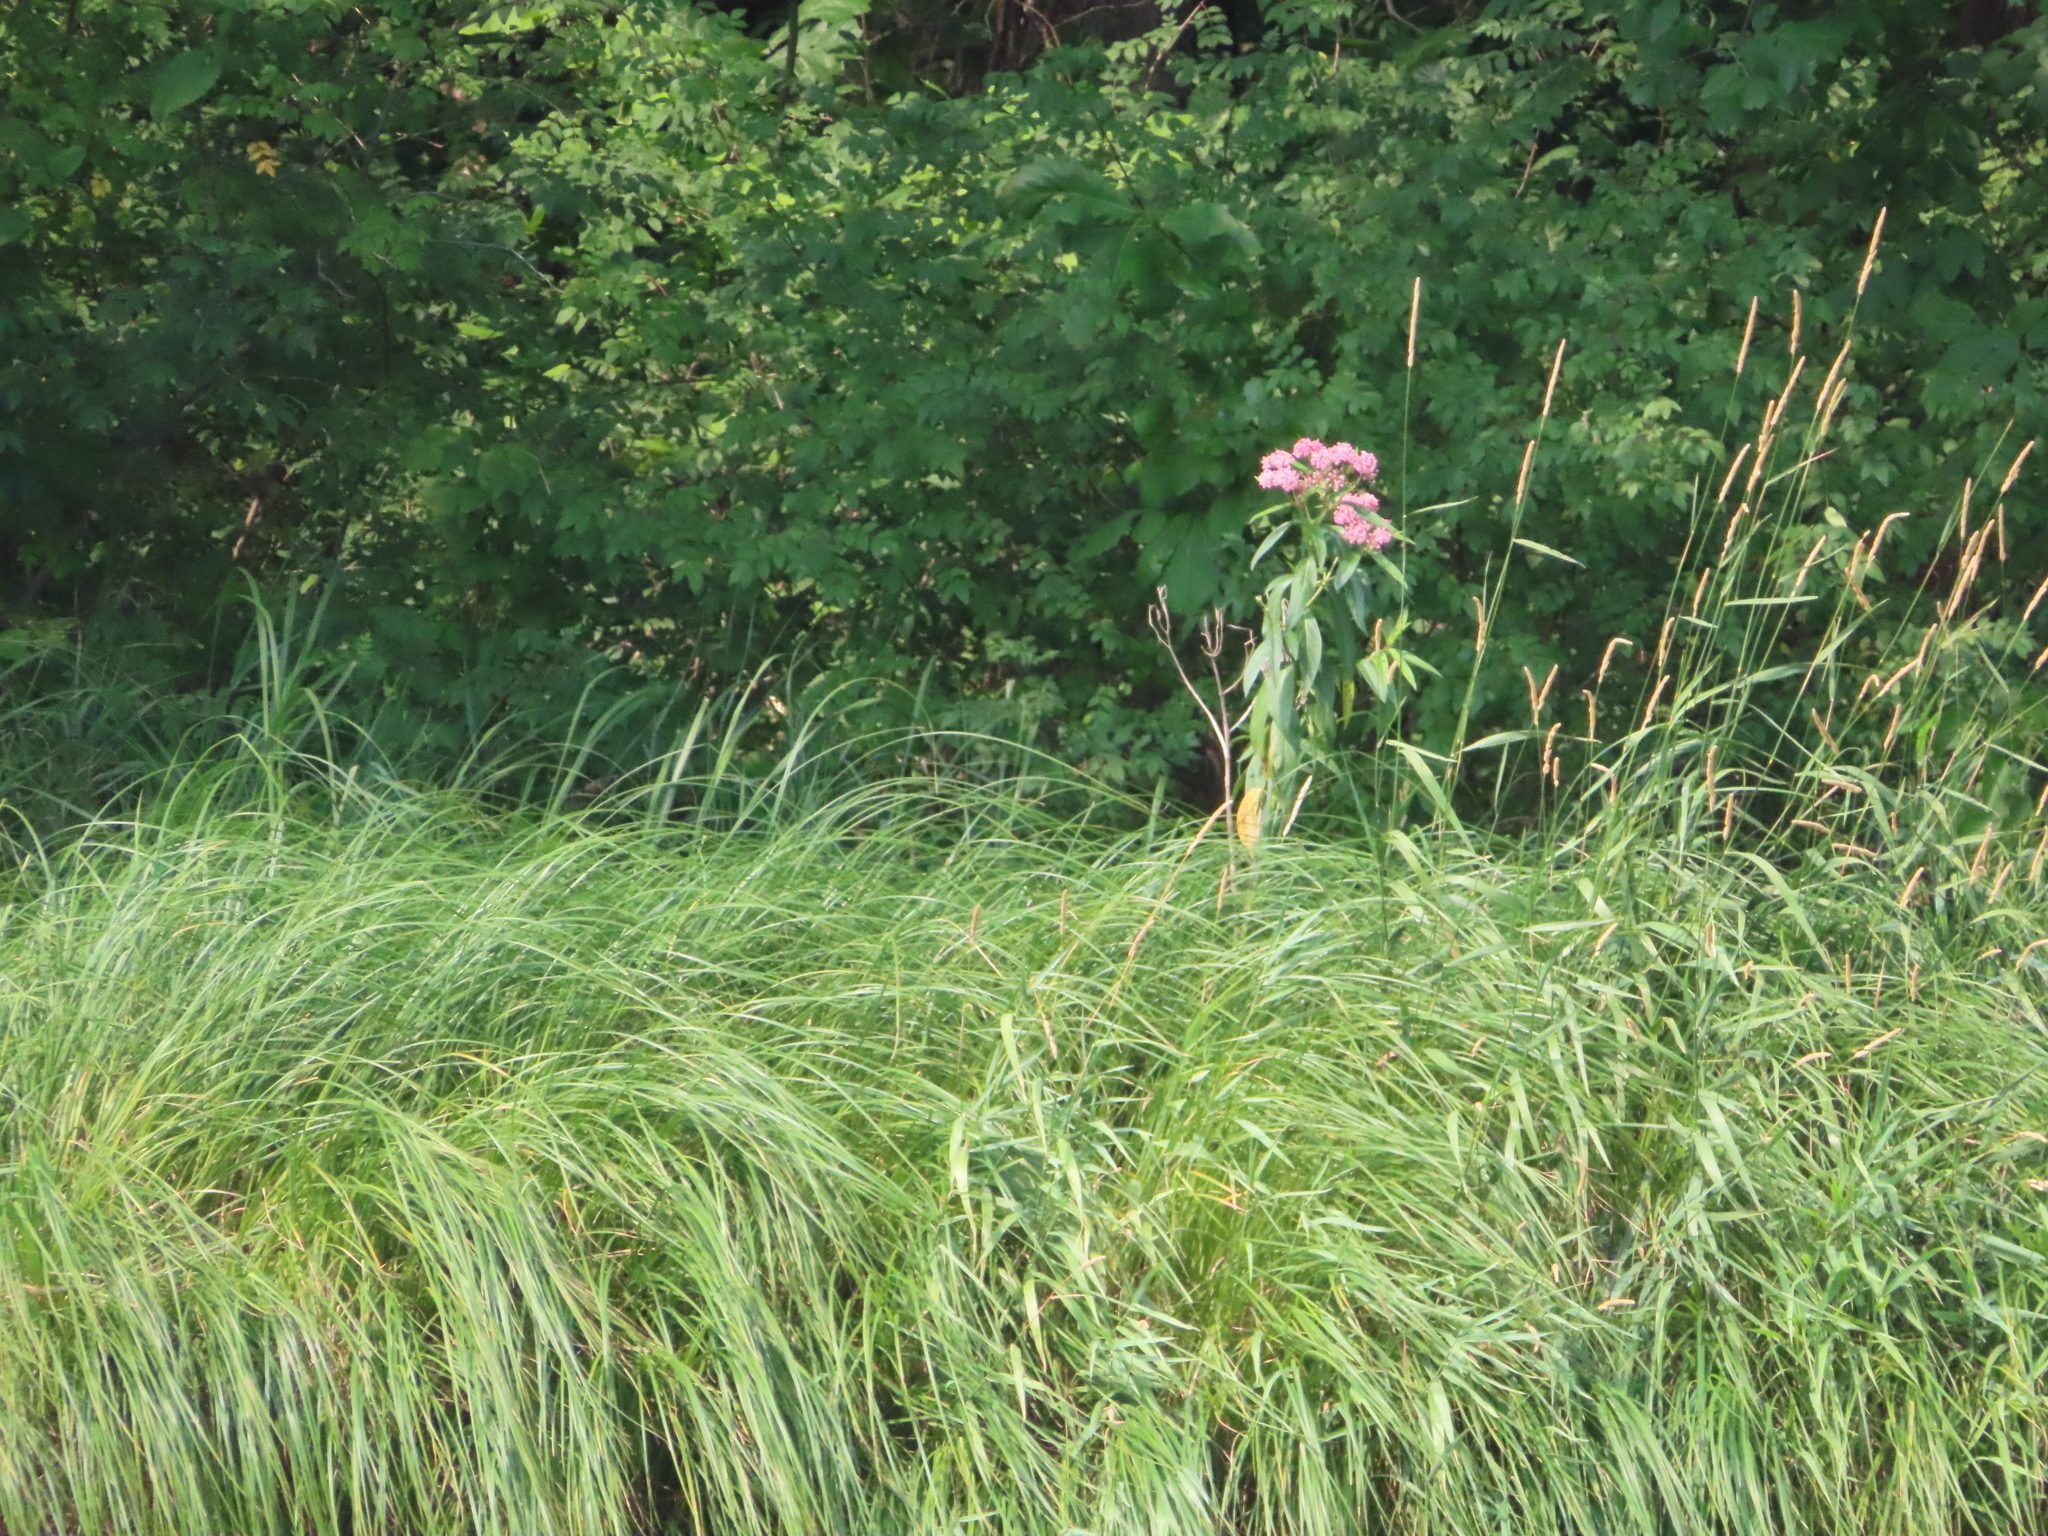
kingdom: Plantae
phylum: Tracheophyta
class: Magnoliopsida
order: Gentianales
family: Apocynaceae
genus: Asclepias
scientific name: Asclepias incarnata
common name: Swamp milkweed
